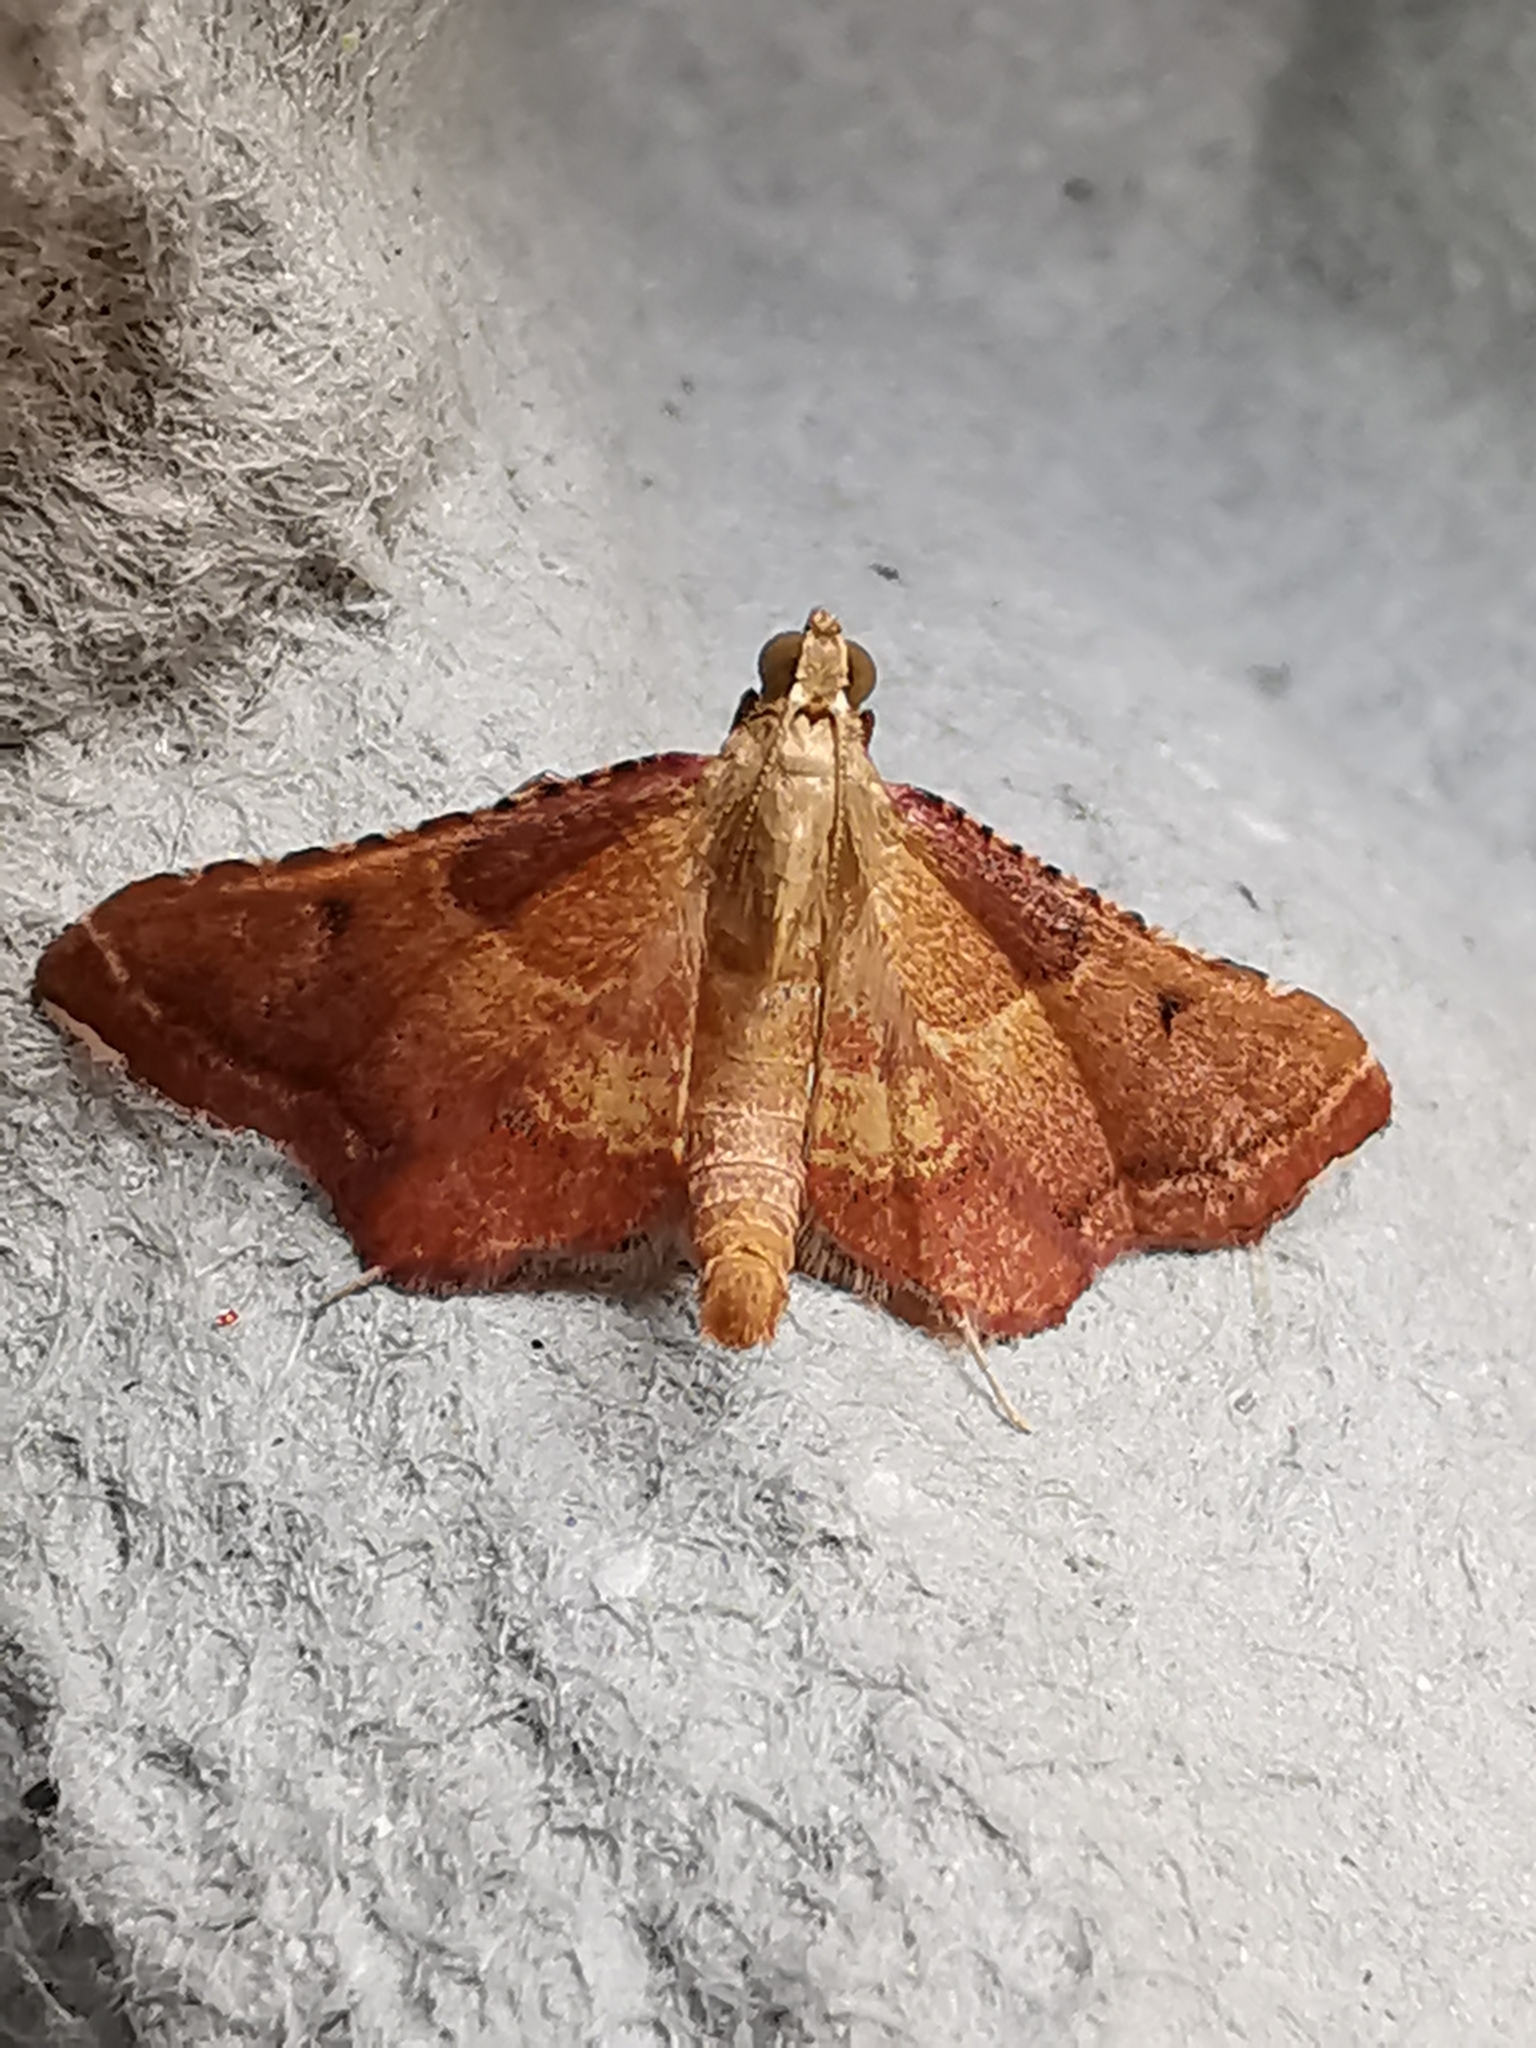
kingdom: Animalia
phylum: Arthropoda
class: Insecta
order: Lepidoptera
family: Pyralidae
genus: Endotricha
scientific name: Endotricha flammealis
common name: Rosy tabby
